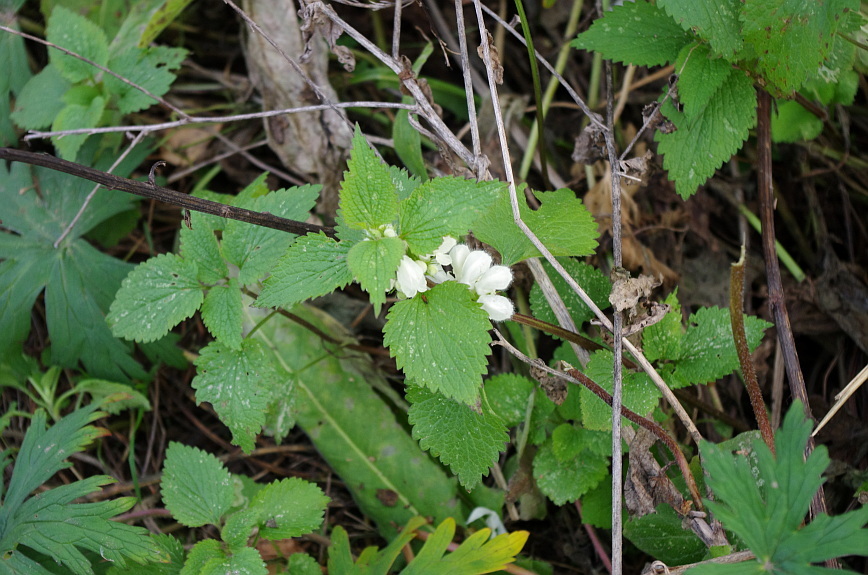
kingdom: Plantae
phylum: Tracheophyta
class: Magnoliopsida
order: Lamiales
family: Lamiaceae
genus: Lamium
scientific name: Lamium album
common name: White dead-nettle
